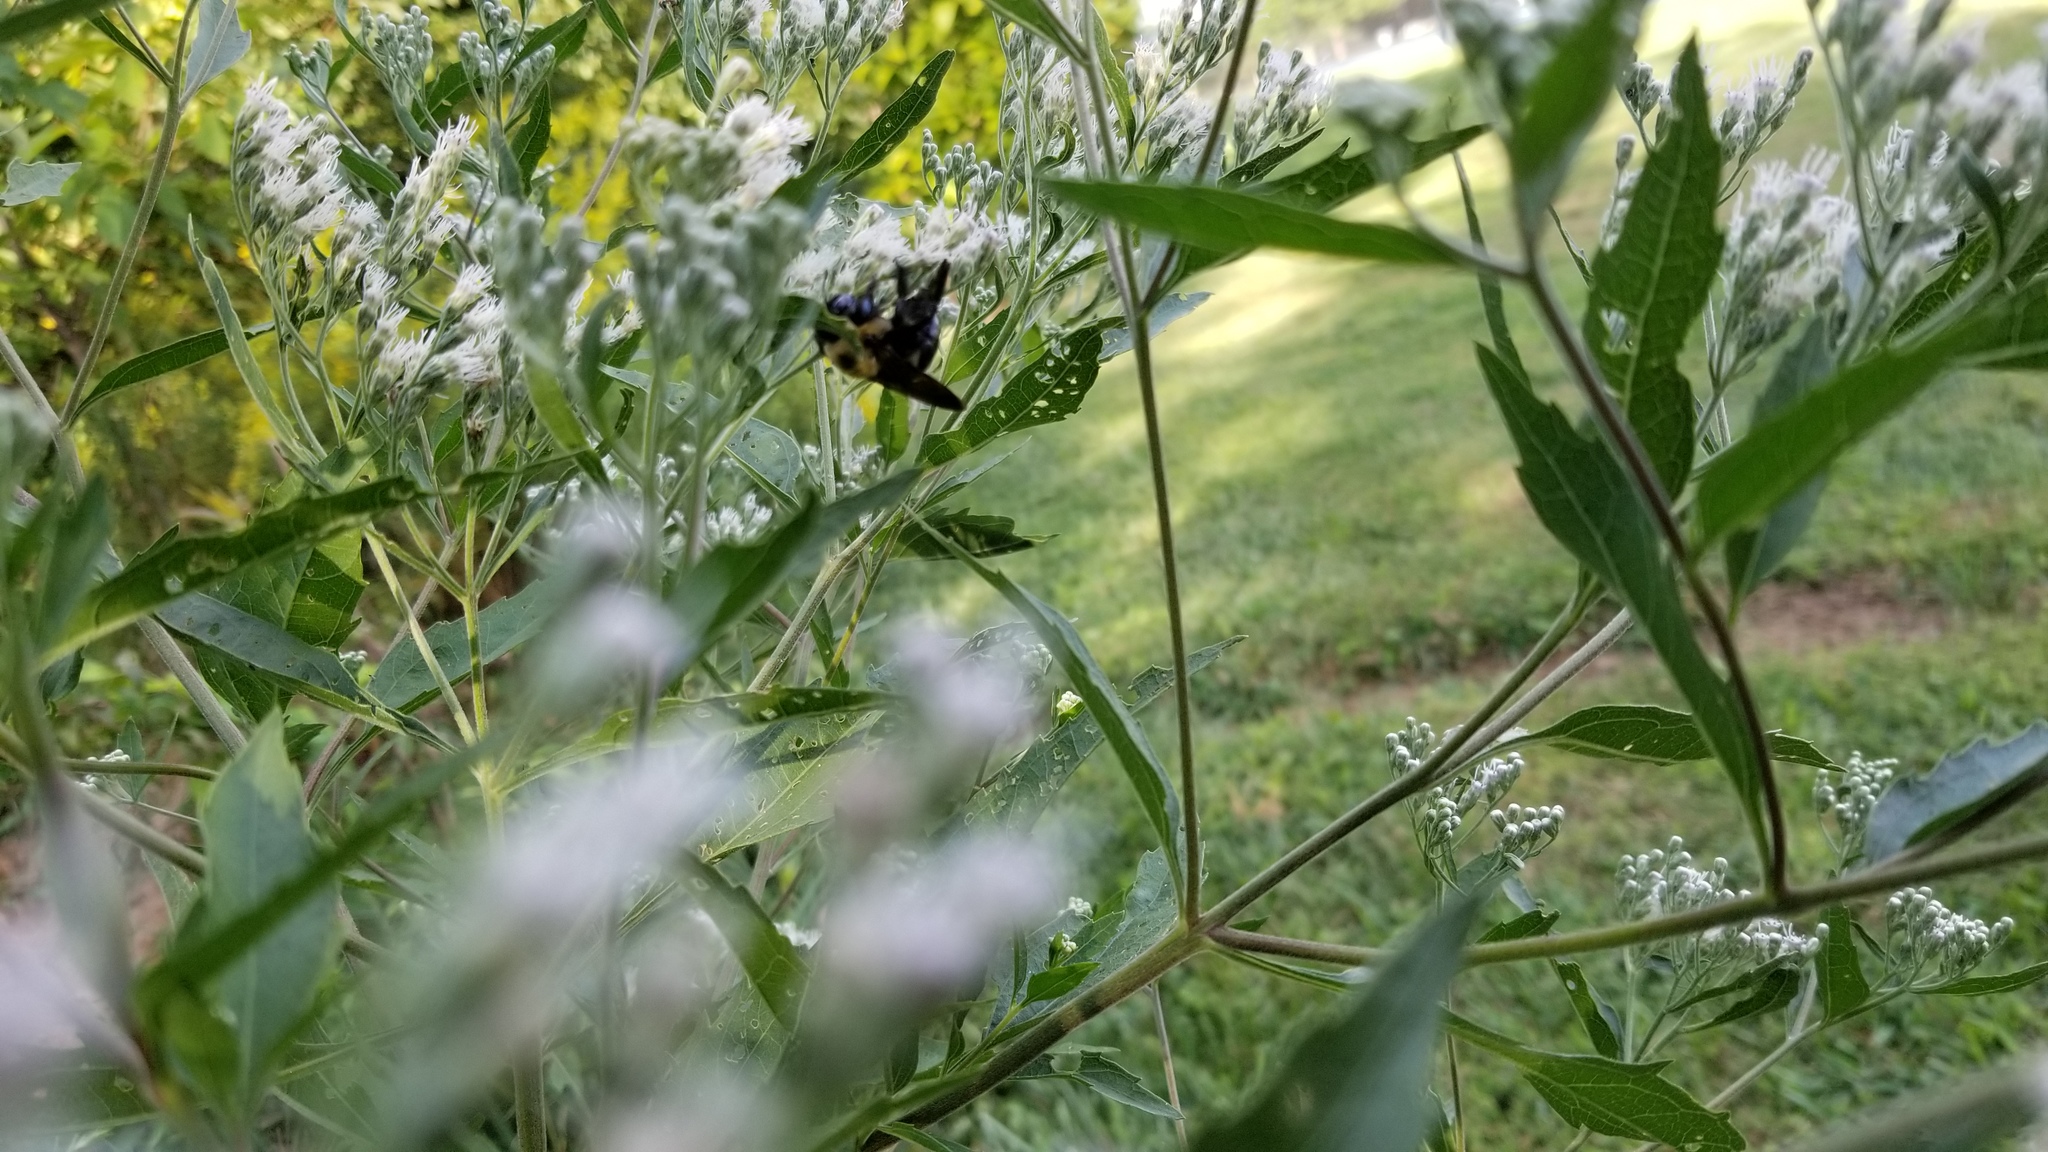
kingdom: Animalia
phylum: Arthropoda
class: Insecta
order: Hymenoptera
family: Apidae
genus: Xylocopa
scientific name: Xylocopa virginica
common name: Carpenter bee
